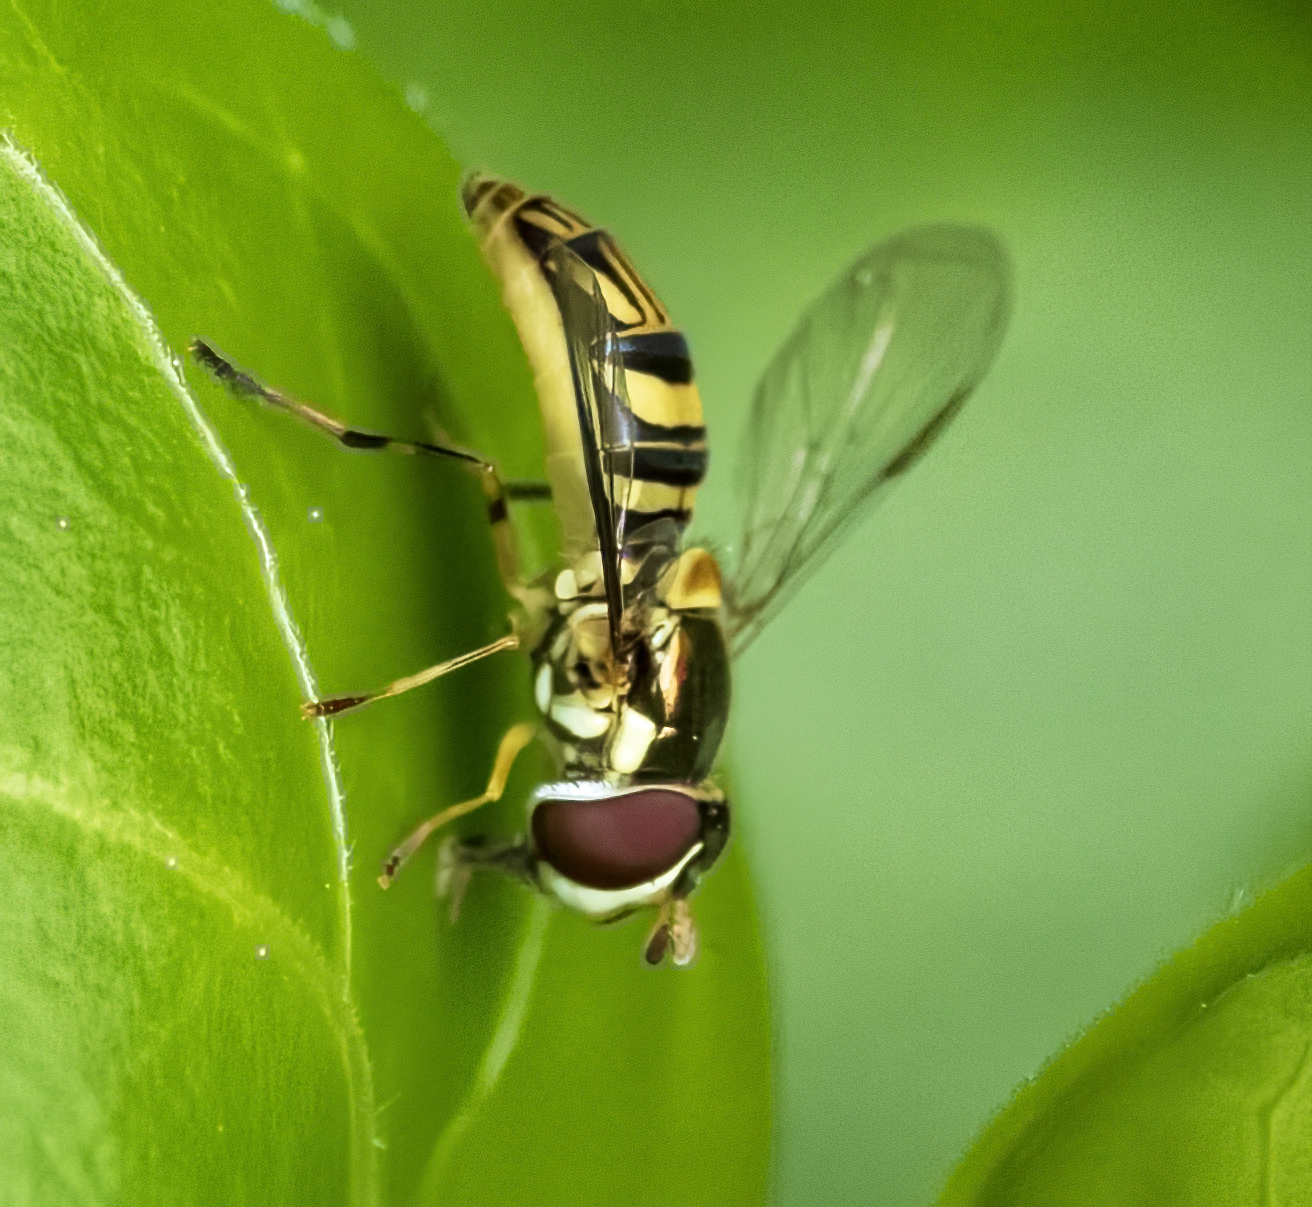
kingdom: Animalia
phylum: Arthropoda
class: Insecta
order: Diptera
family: Syrphidae
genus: Allograpta
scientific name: Allograpta obliqua
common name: Common oblique syrphid
